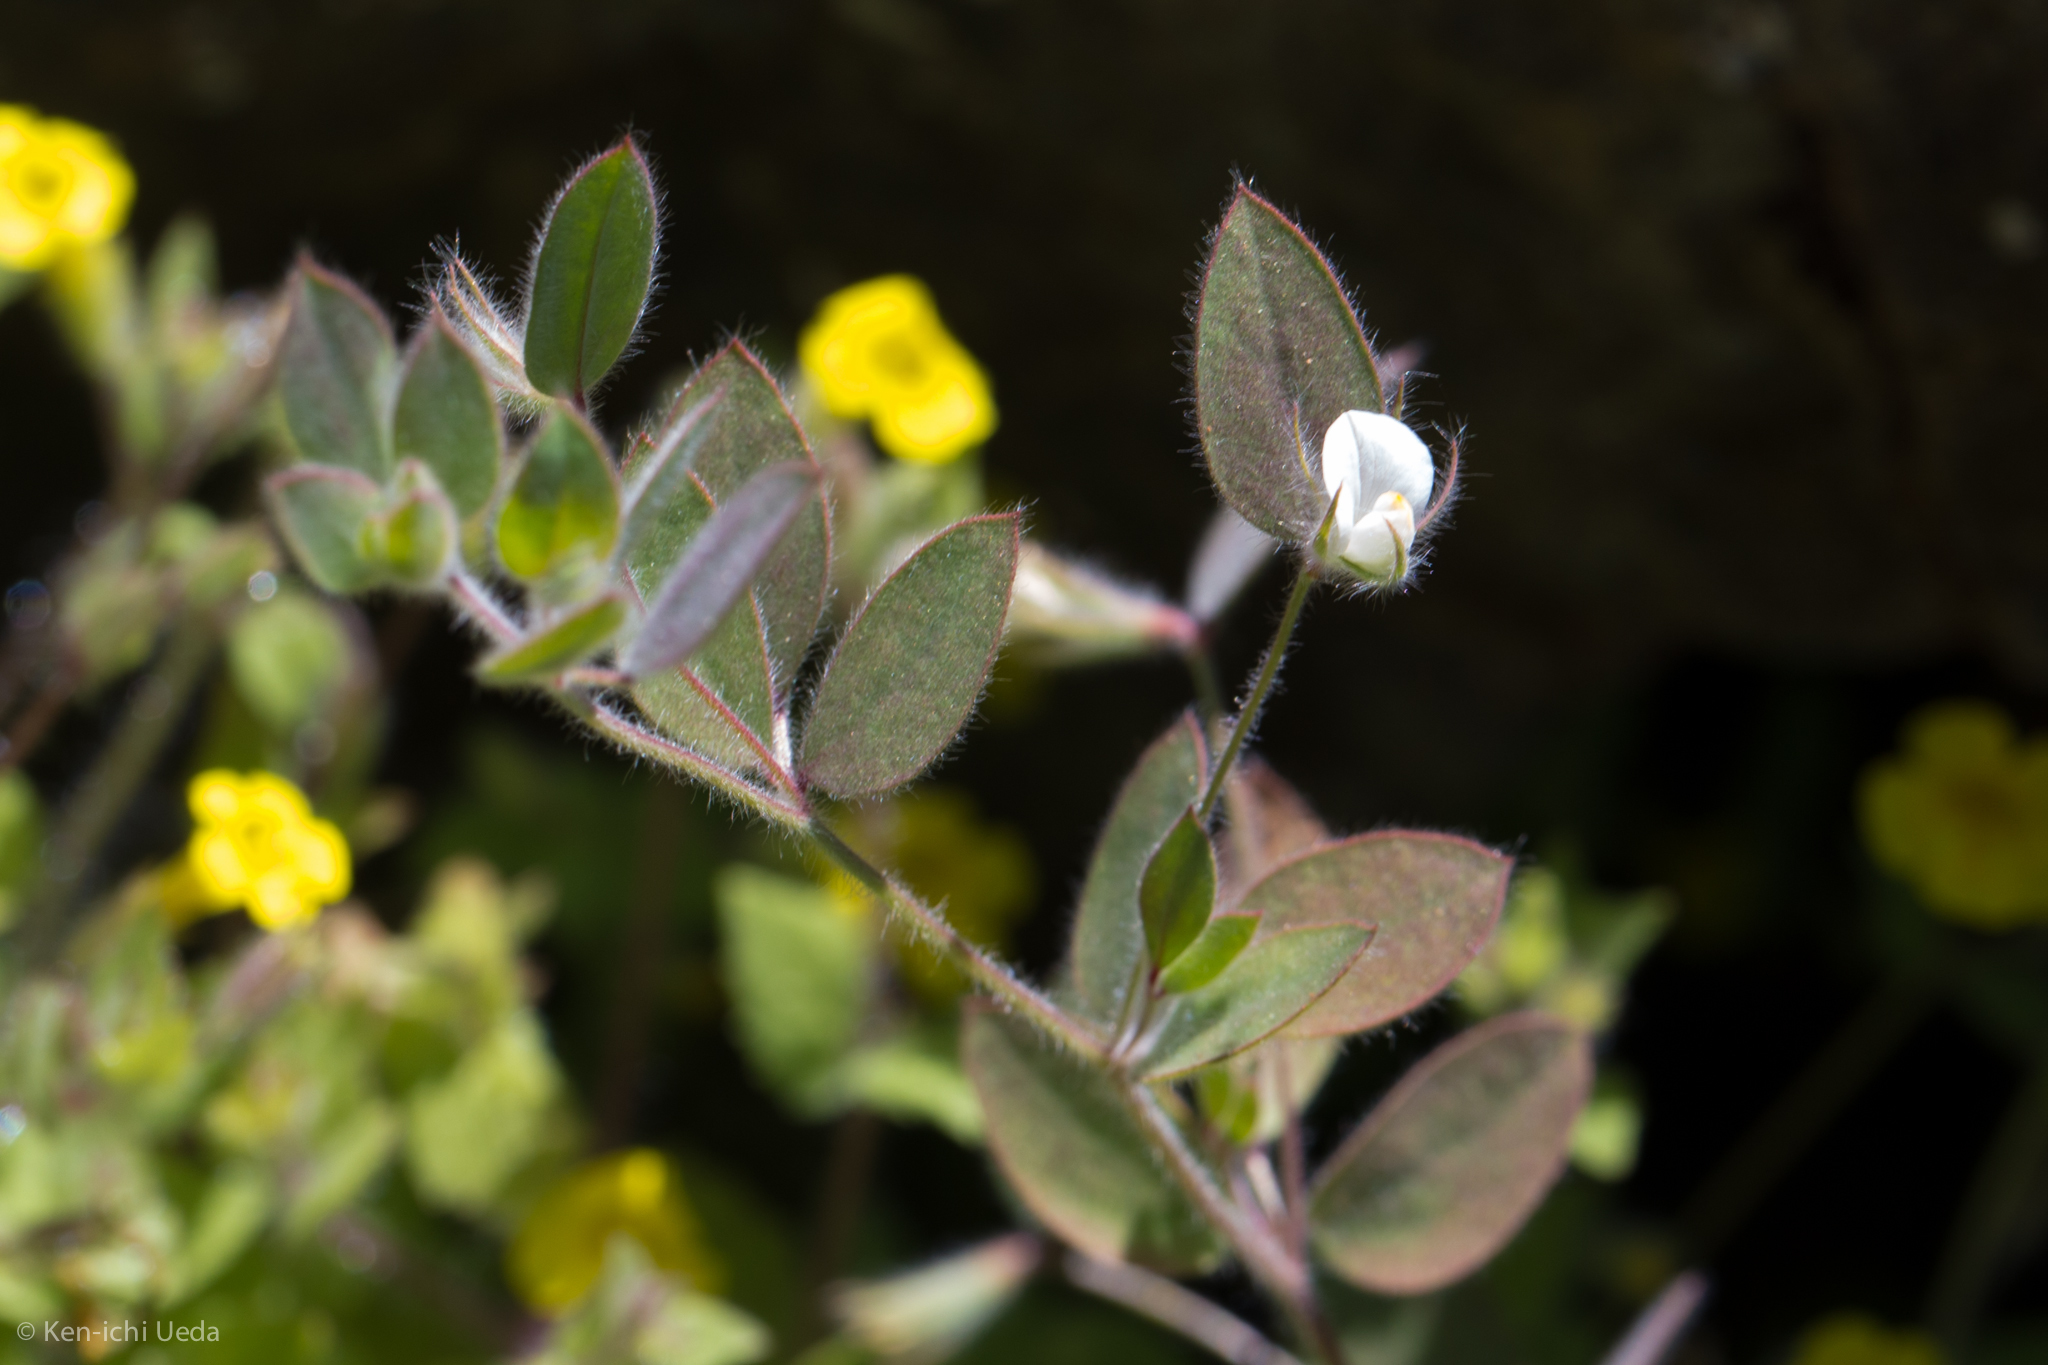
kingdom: Plantae
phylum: Tracheophyta
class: Magnoliopsida
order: Fabales
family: Fabaceae
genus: Acmispon
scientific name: Acmispon americanus
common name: American bird's-foot trefoil
